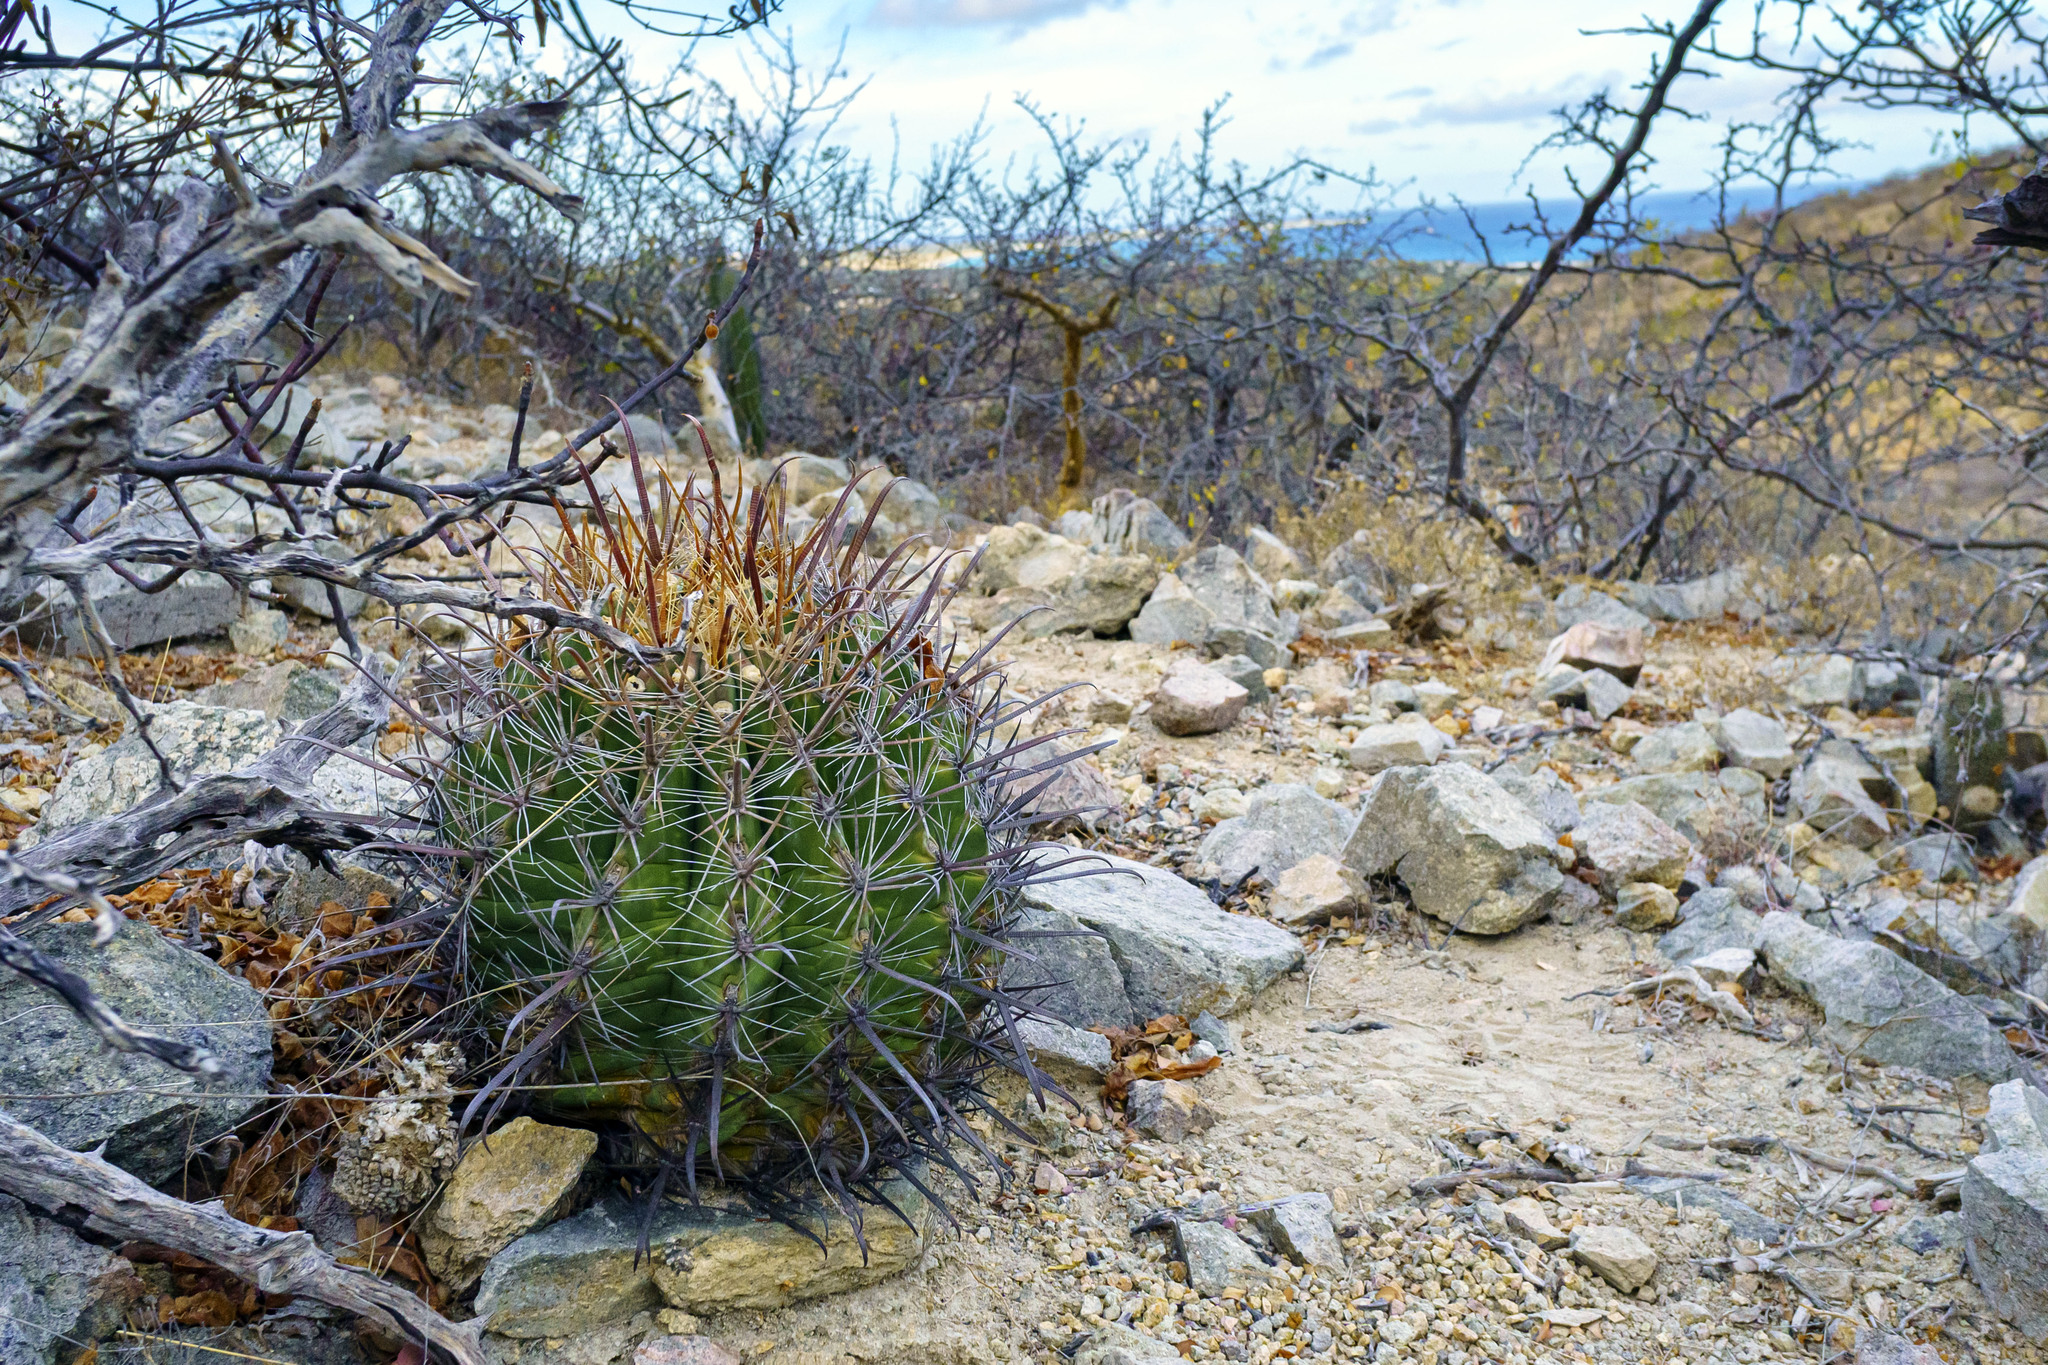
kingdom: Plantae
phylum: Tracheophyta
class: Magnoliopsida
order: Caryophyllales
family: Cactaceae
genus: Ferocactus
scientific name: Ferocactus townsendianus
